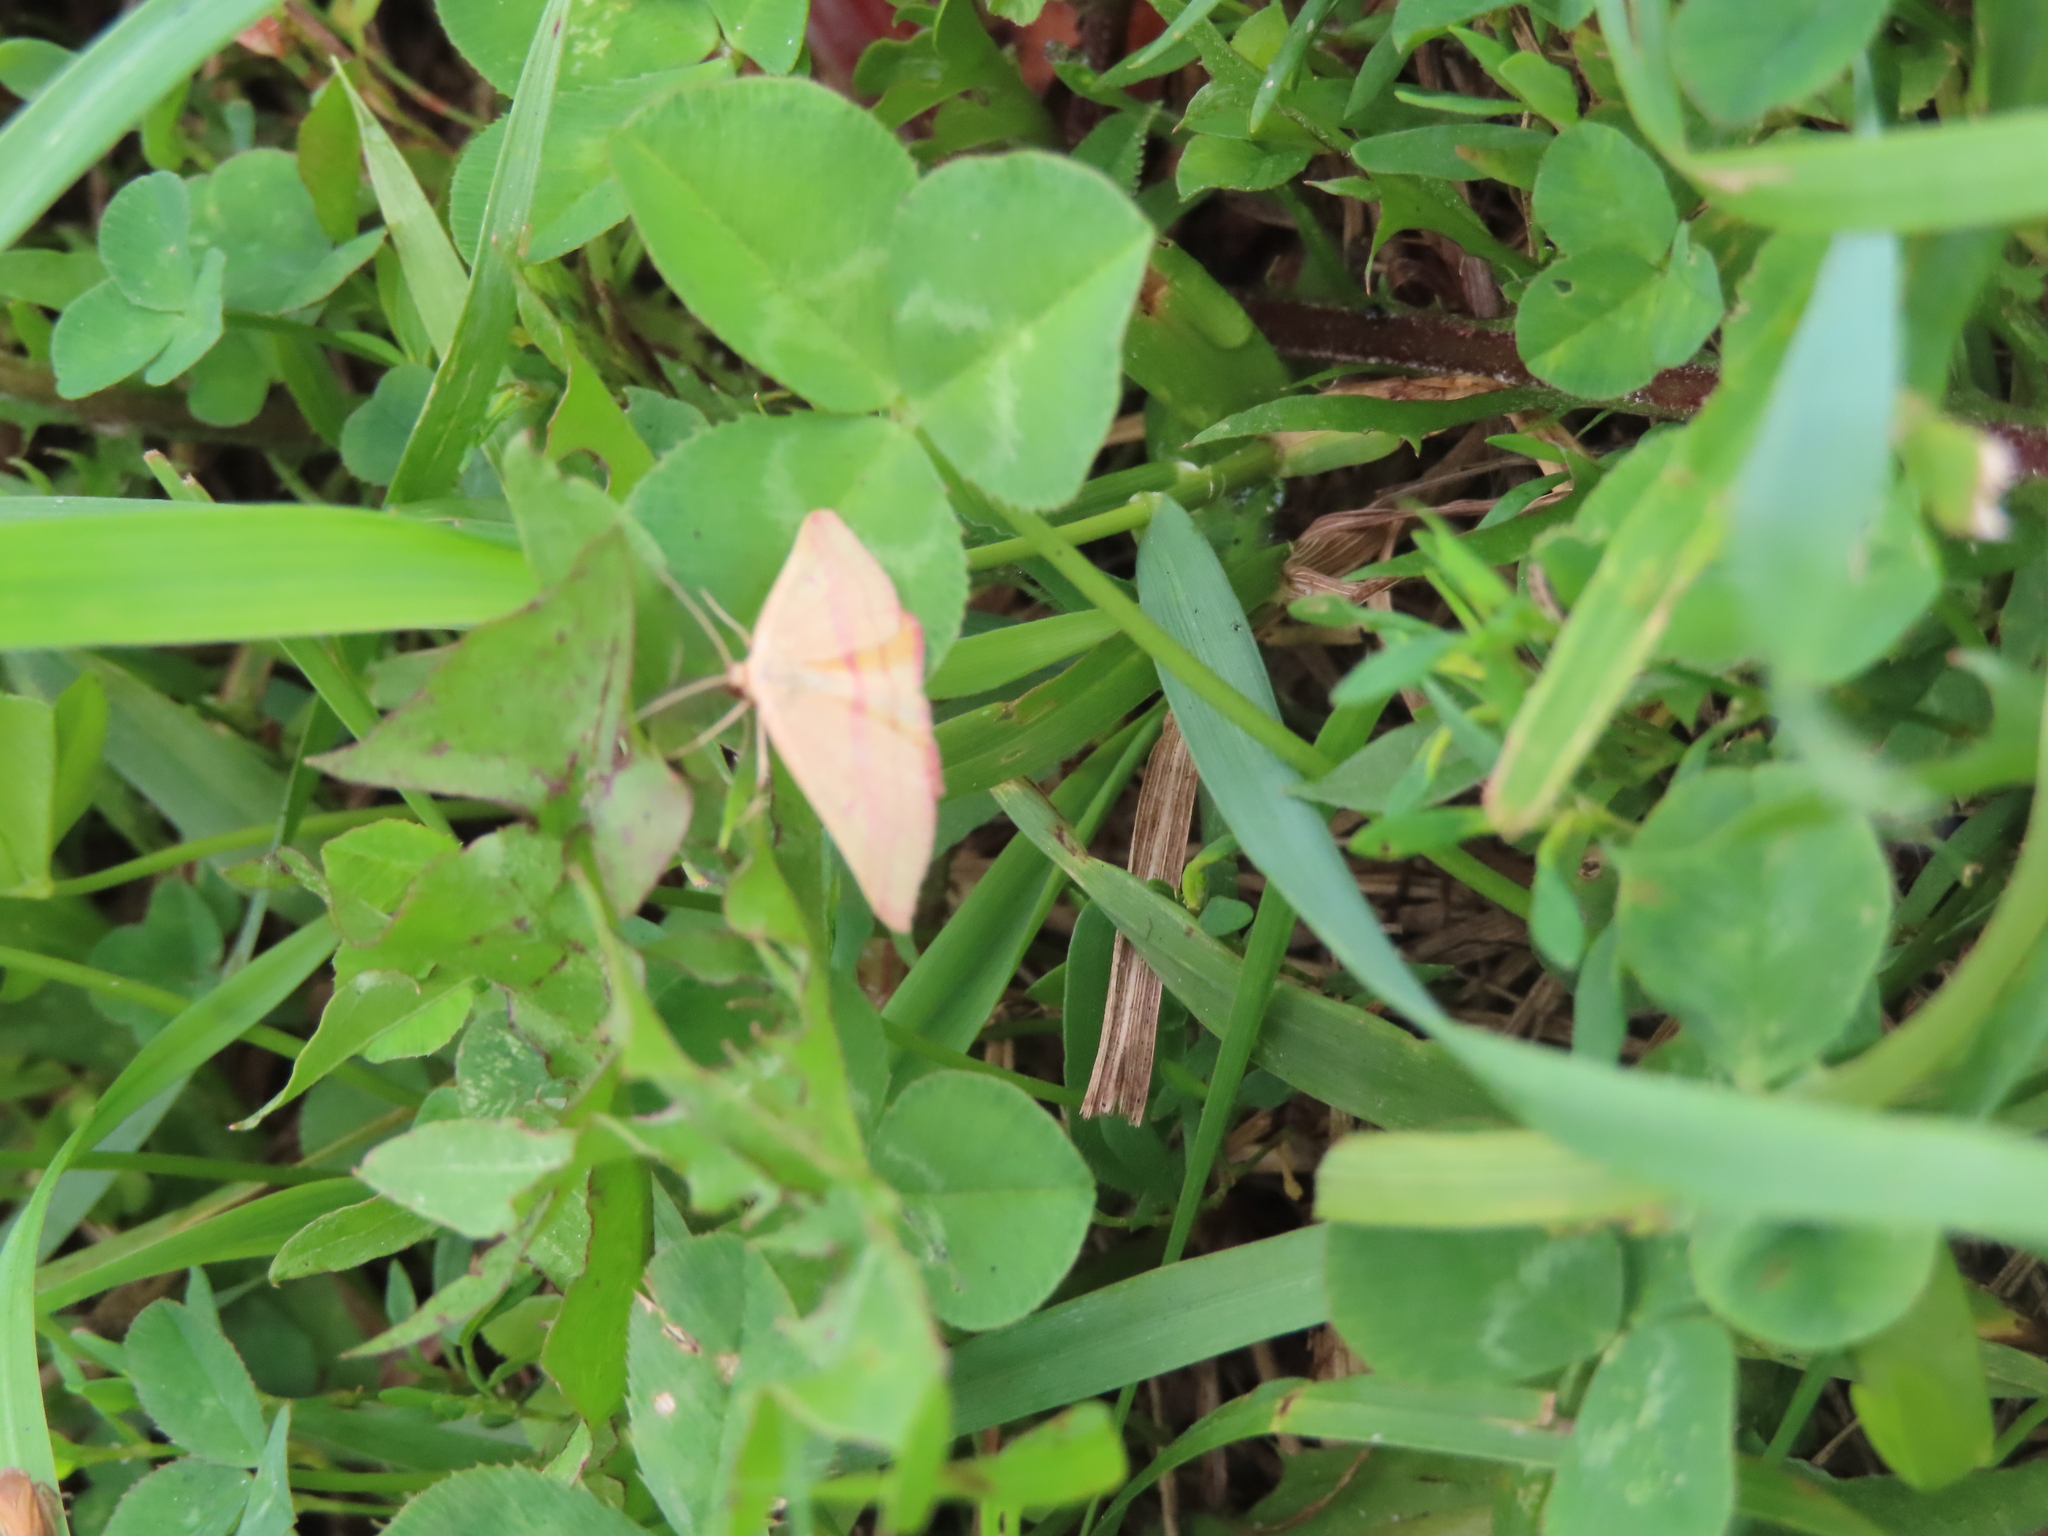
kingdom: Animalia
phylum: Arthropoda
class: Insecta
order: Lepidoptera
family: Geometridae
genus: Haematopis
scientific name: Haematopis grataria
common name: Chickweed geometer
